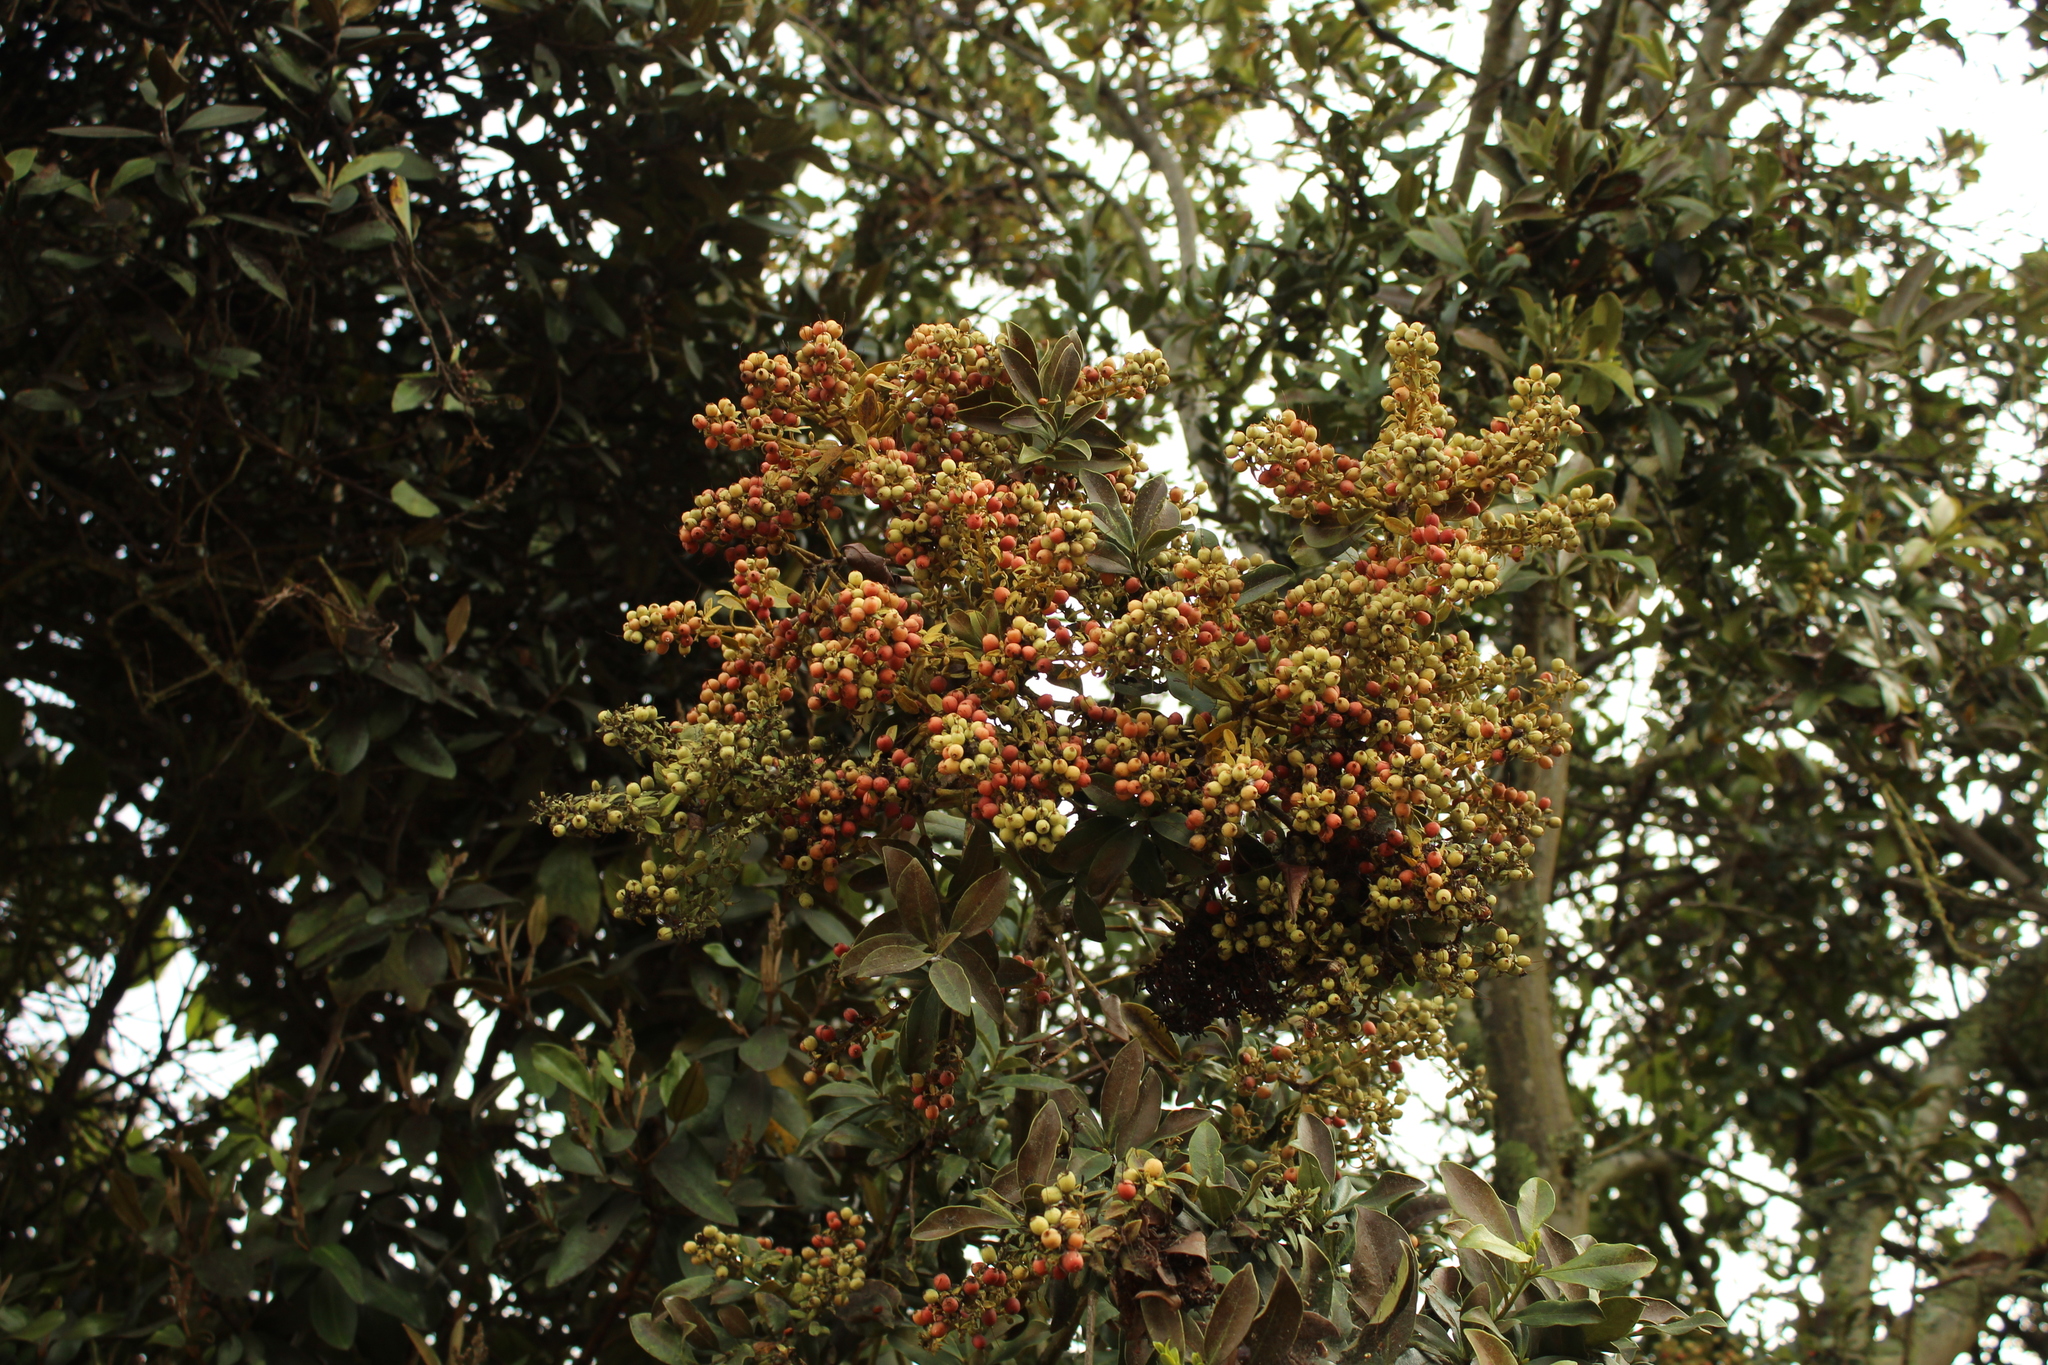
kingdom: Plantae
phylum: Tracheophyta
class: Magnoliopsida
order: Santalales
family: Loranthaceae
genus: Gaiadendron
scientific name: Gaiadendron punctatum
